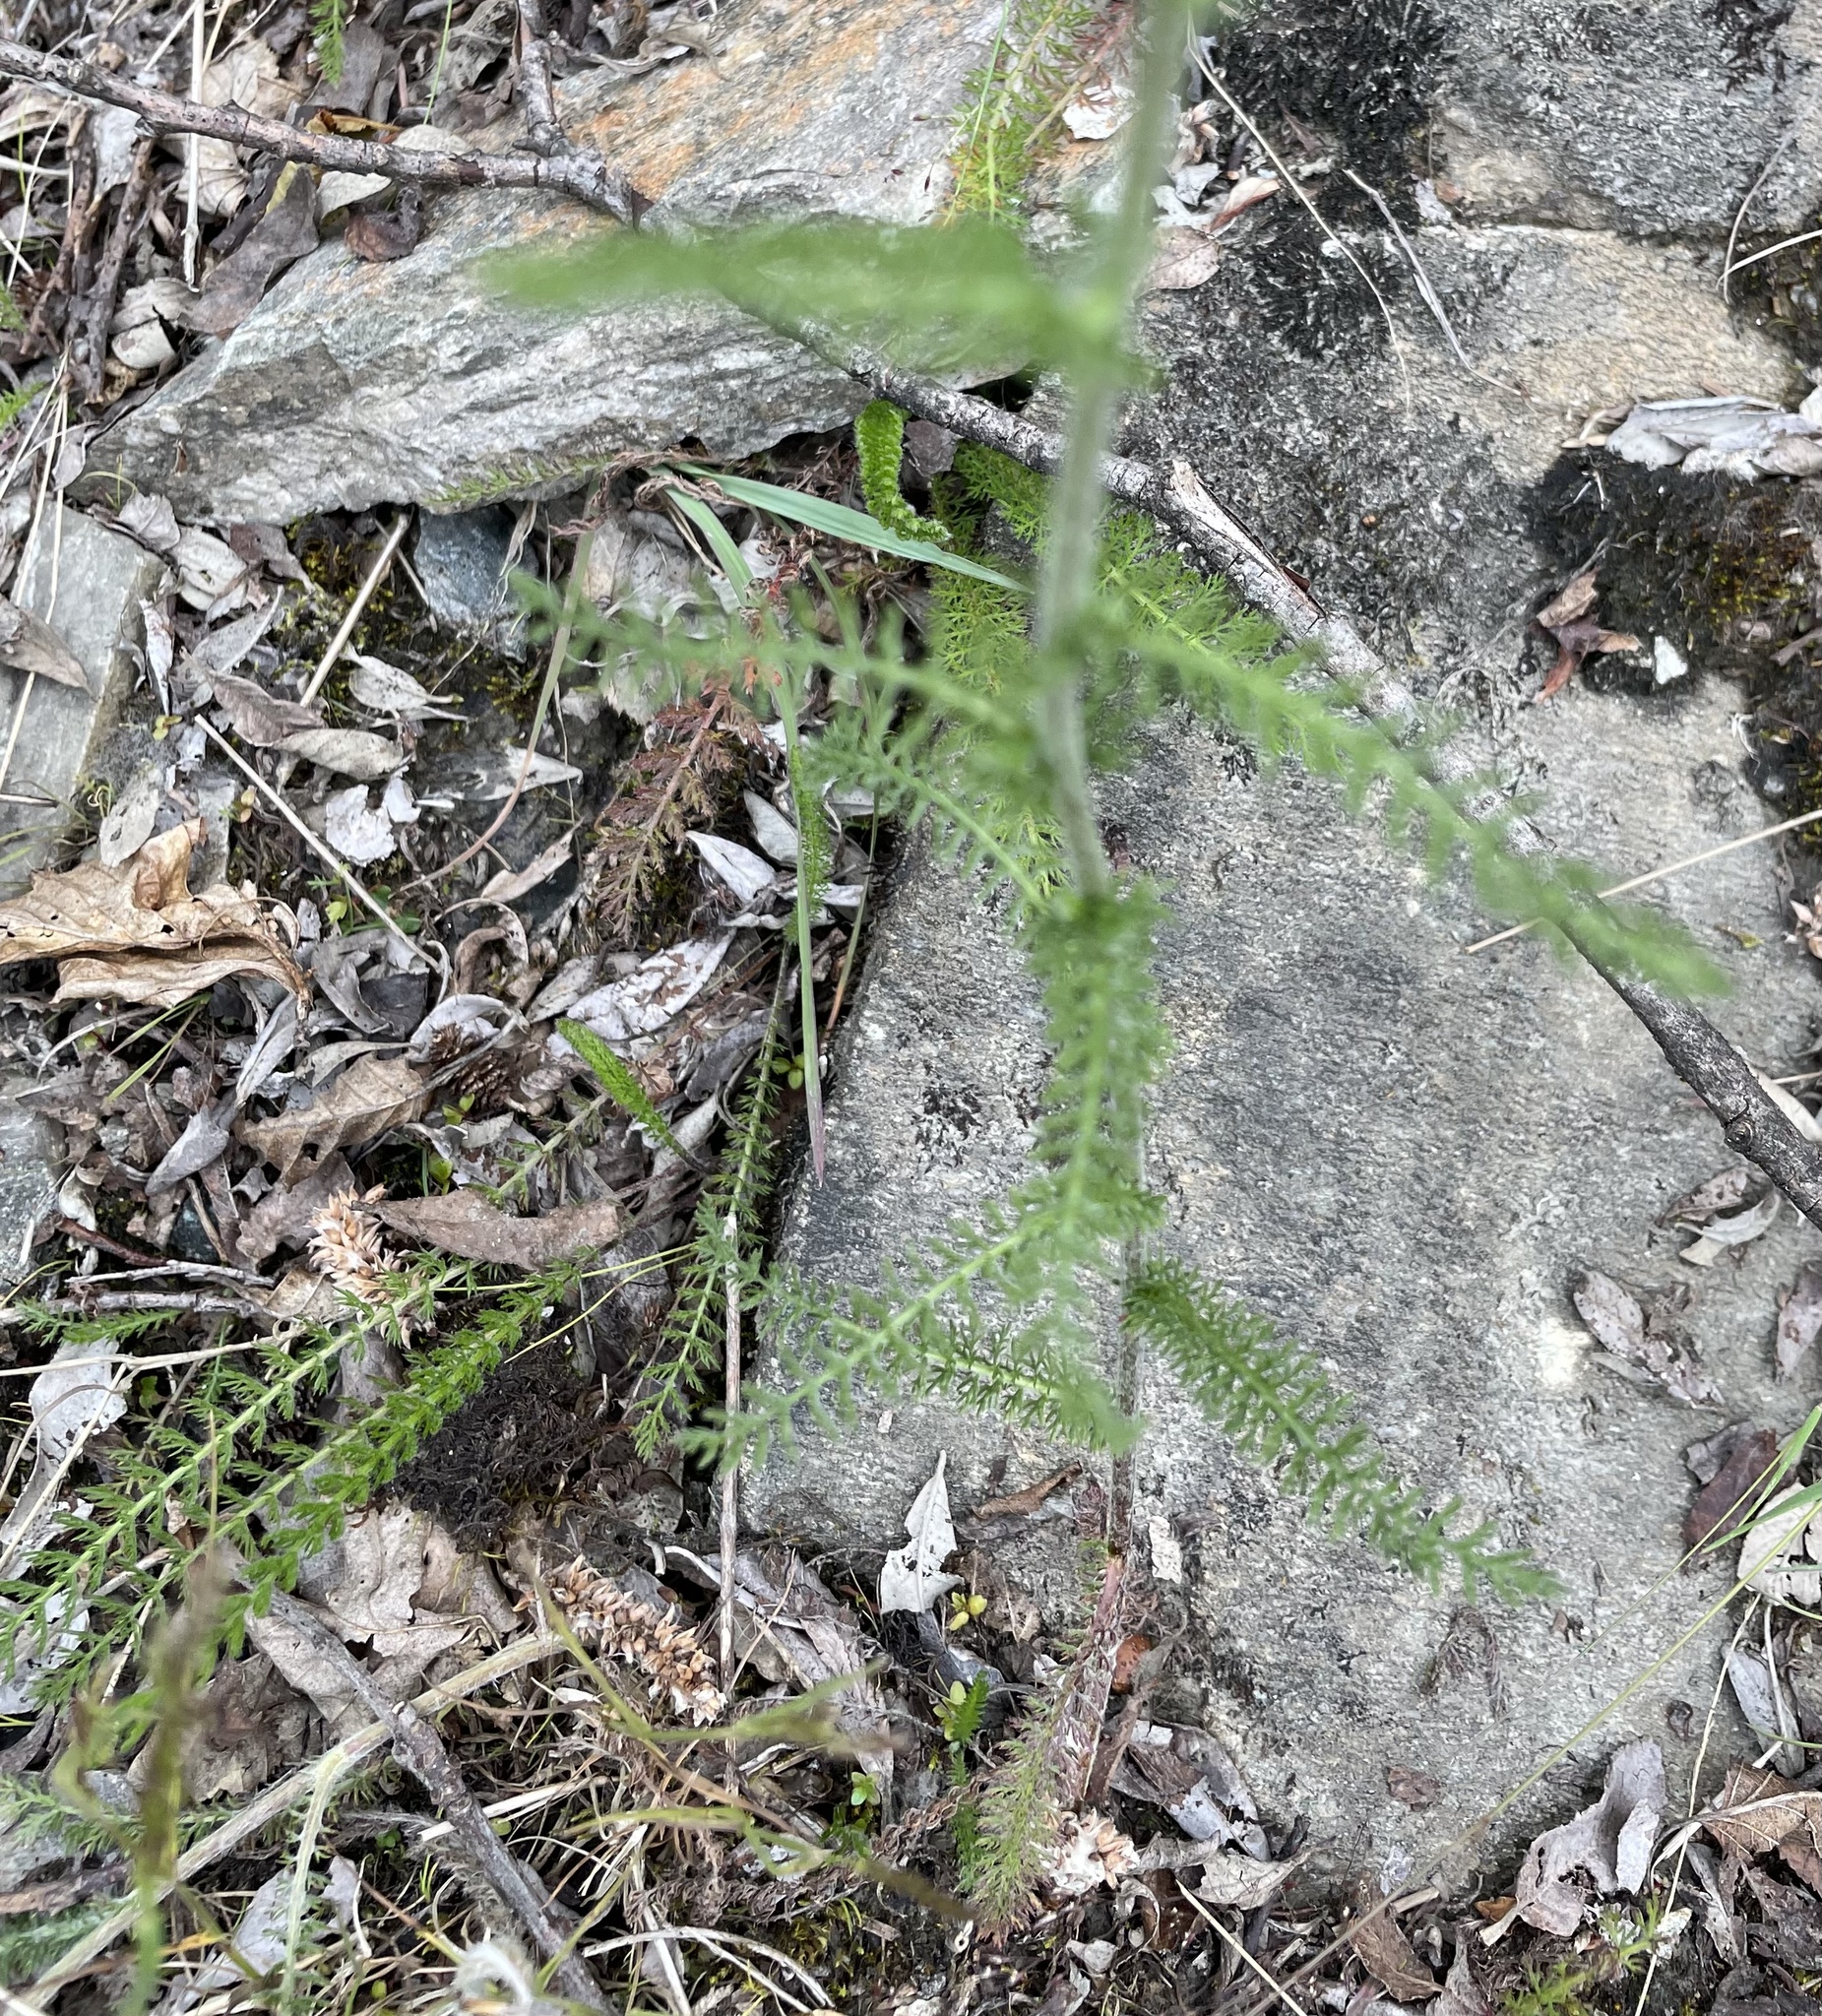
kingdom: Plantae
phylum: Tracheophyta
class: Magnoliopsida
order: Asterales
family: Asteraceae
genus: Achillea
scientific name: Achillea millefolium
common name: Yarrow
